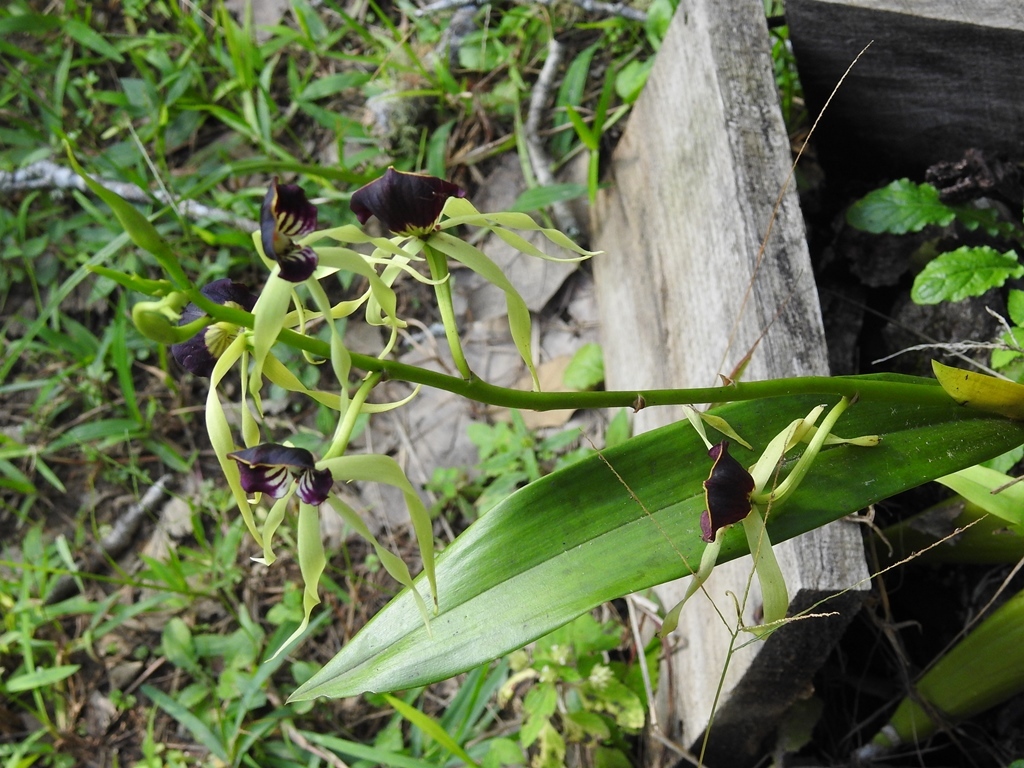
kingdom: Plantae
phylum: Tracheophyta
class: Liliopsida
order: Asparagales
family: Orchidaceae
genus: Prosthechea
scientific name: Prosthechea cochleata
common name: Clamshell orchid
